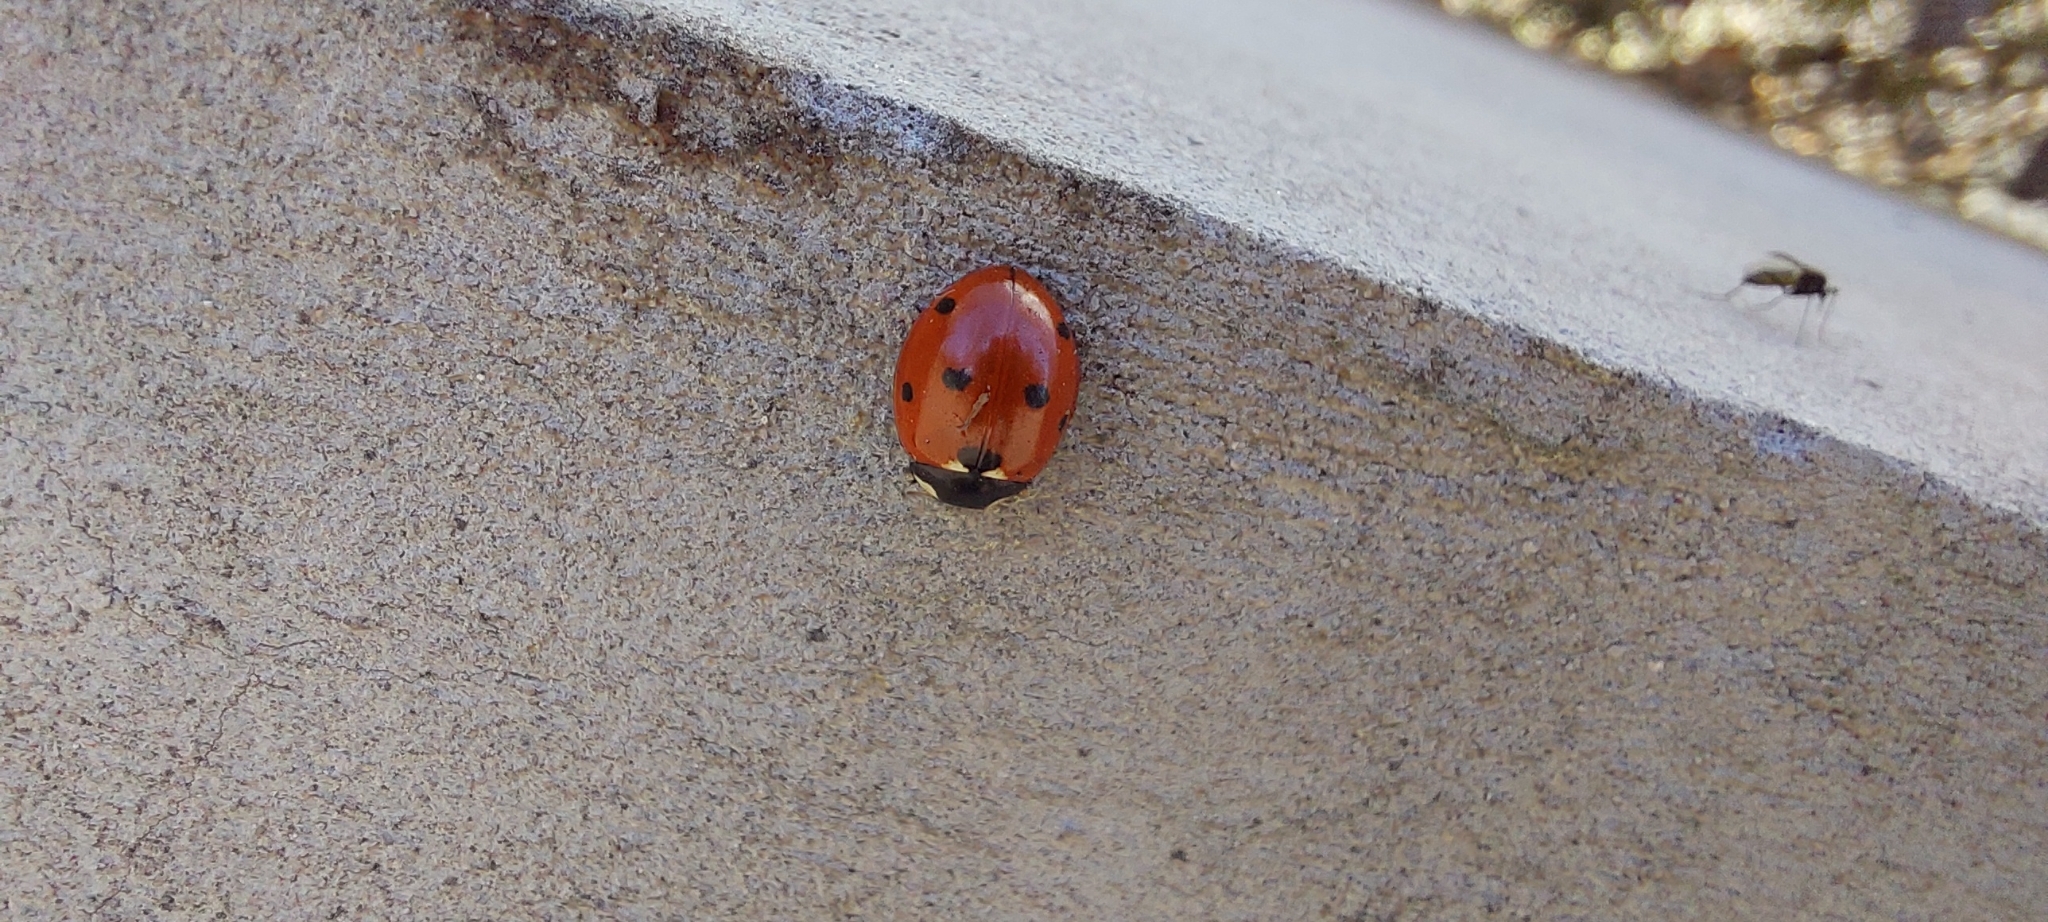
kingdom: Animalia
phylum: Arthropoda
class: Insecta
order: Coleoptera
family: Coccinellidae
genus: Coccinella
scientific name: Coccinella septempunctata
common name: Sevenspotted lady beetle
